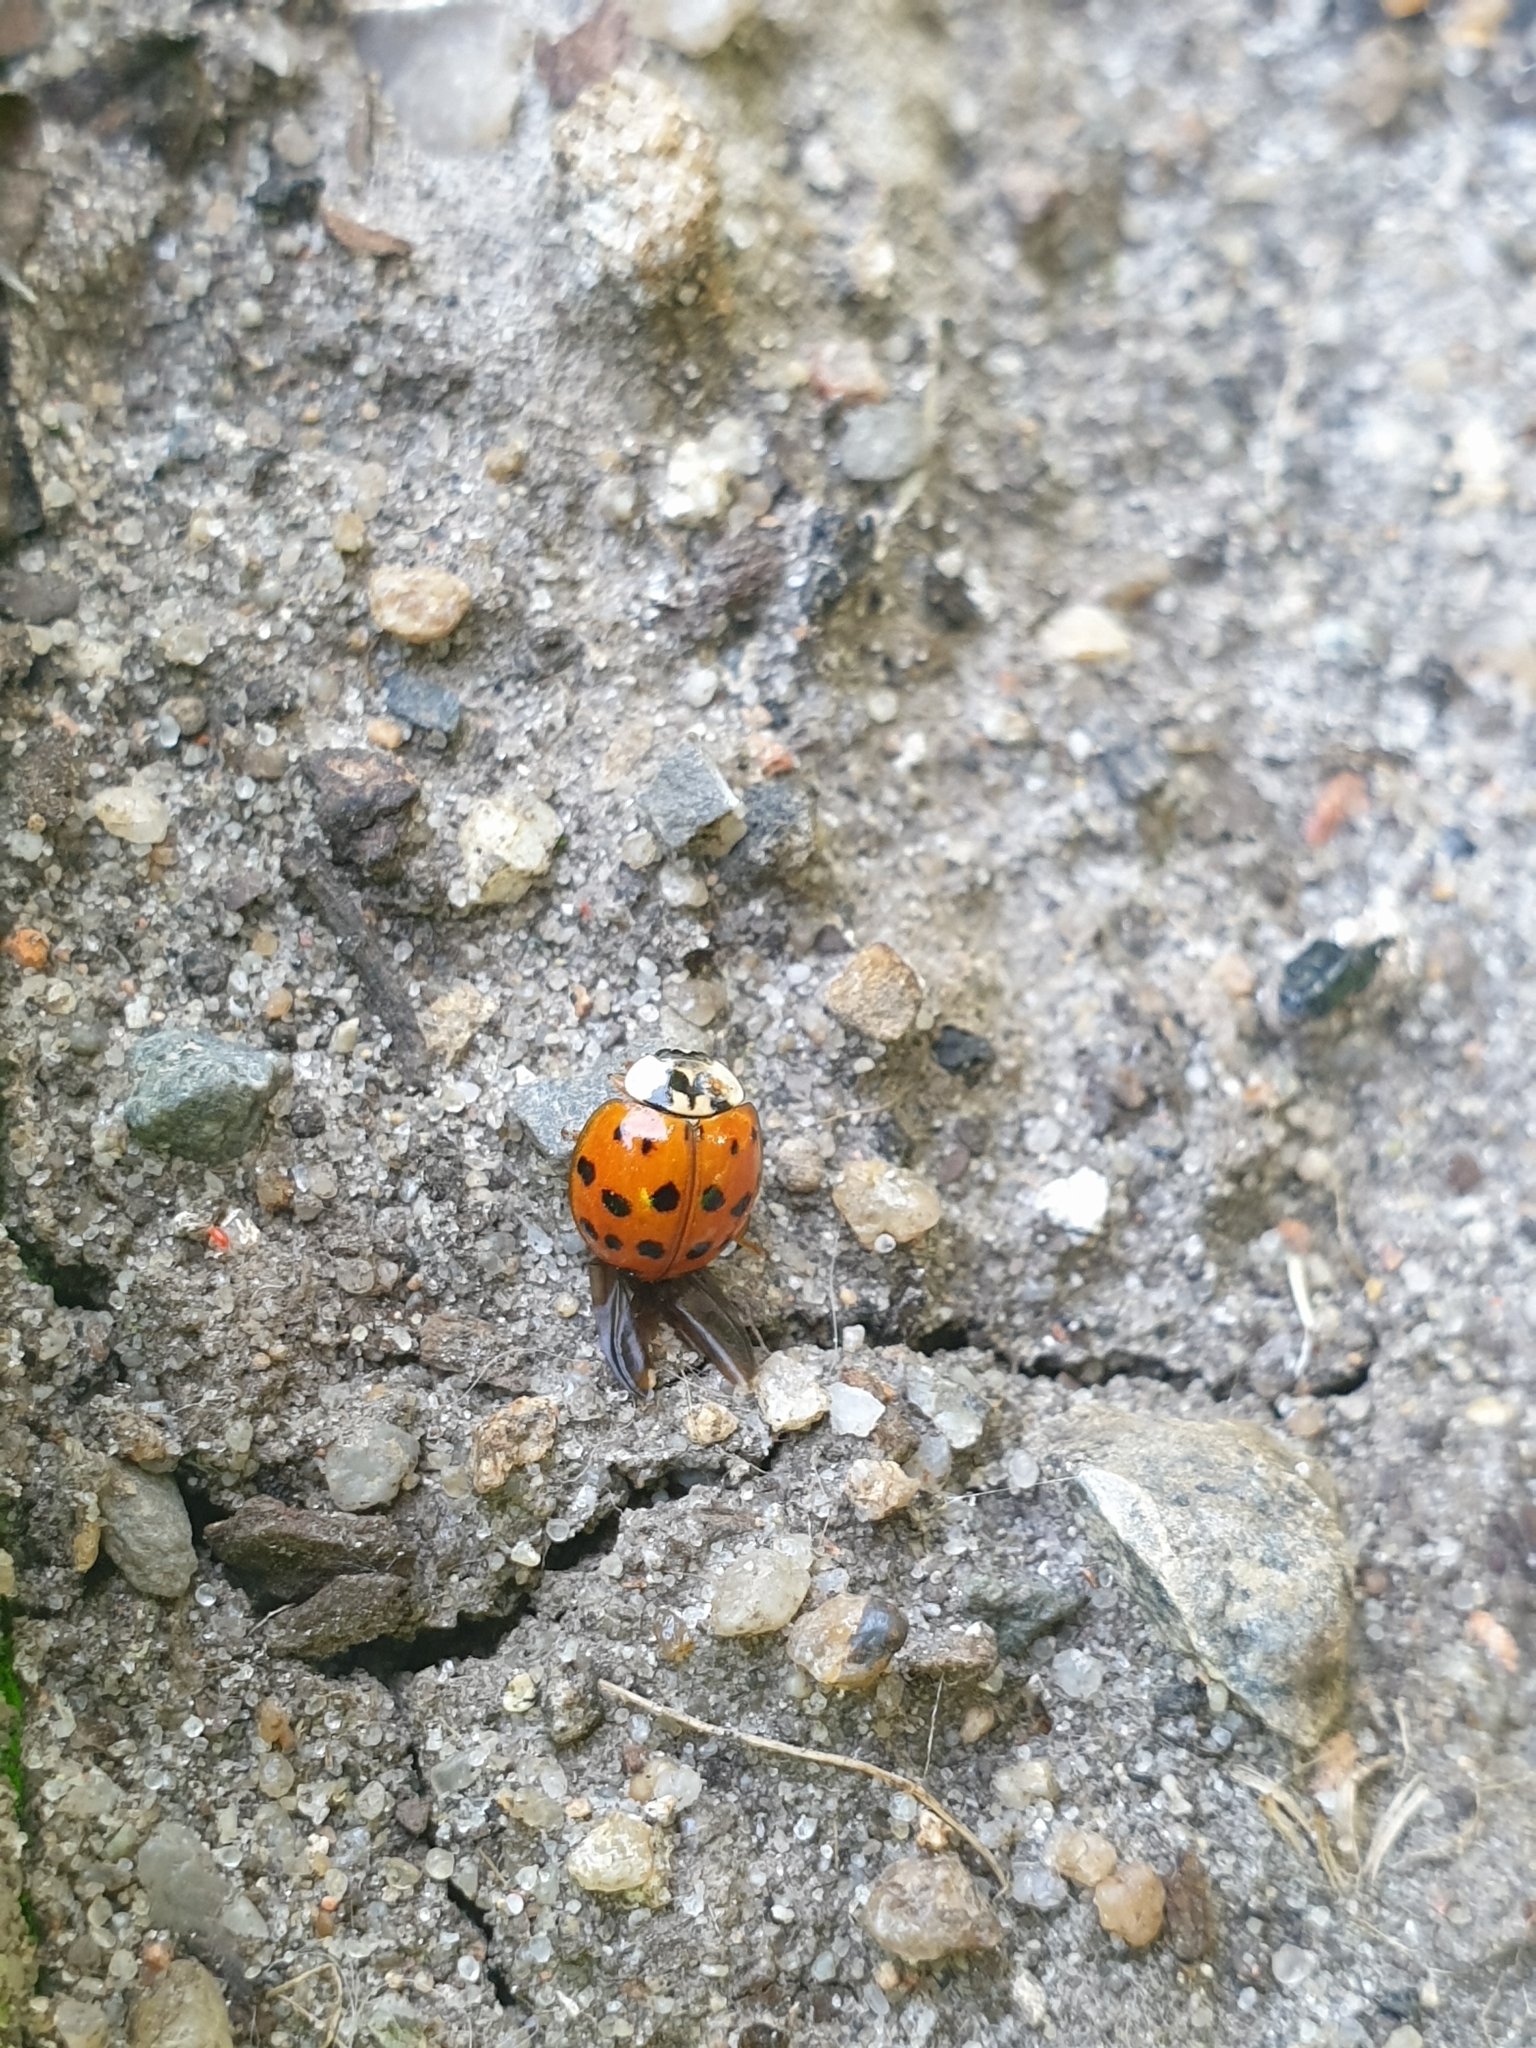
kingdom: Animalia
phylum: Arthropoda
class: Insecta
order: Coleoptera
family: Coccinellidae
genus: Harmonia
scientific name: Harmonia axyridis
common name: Harlequin ladybird
